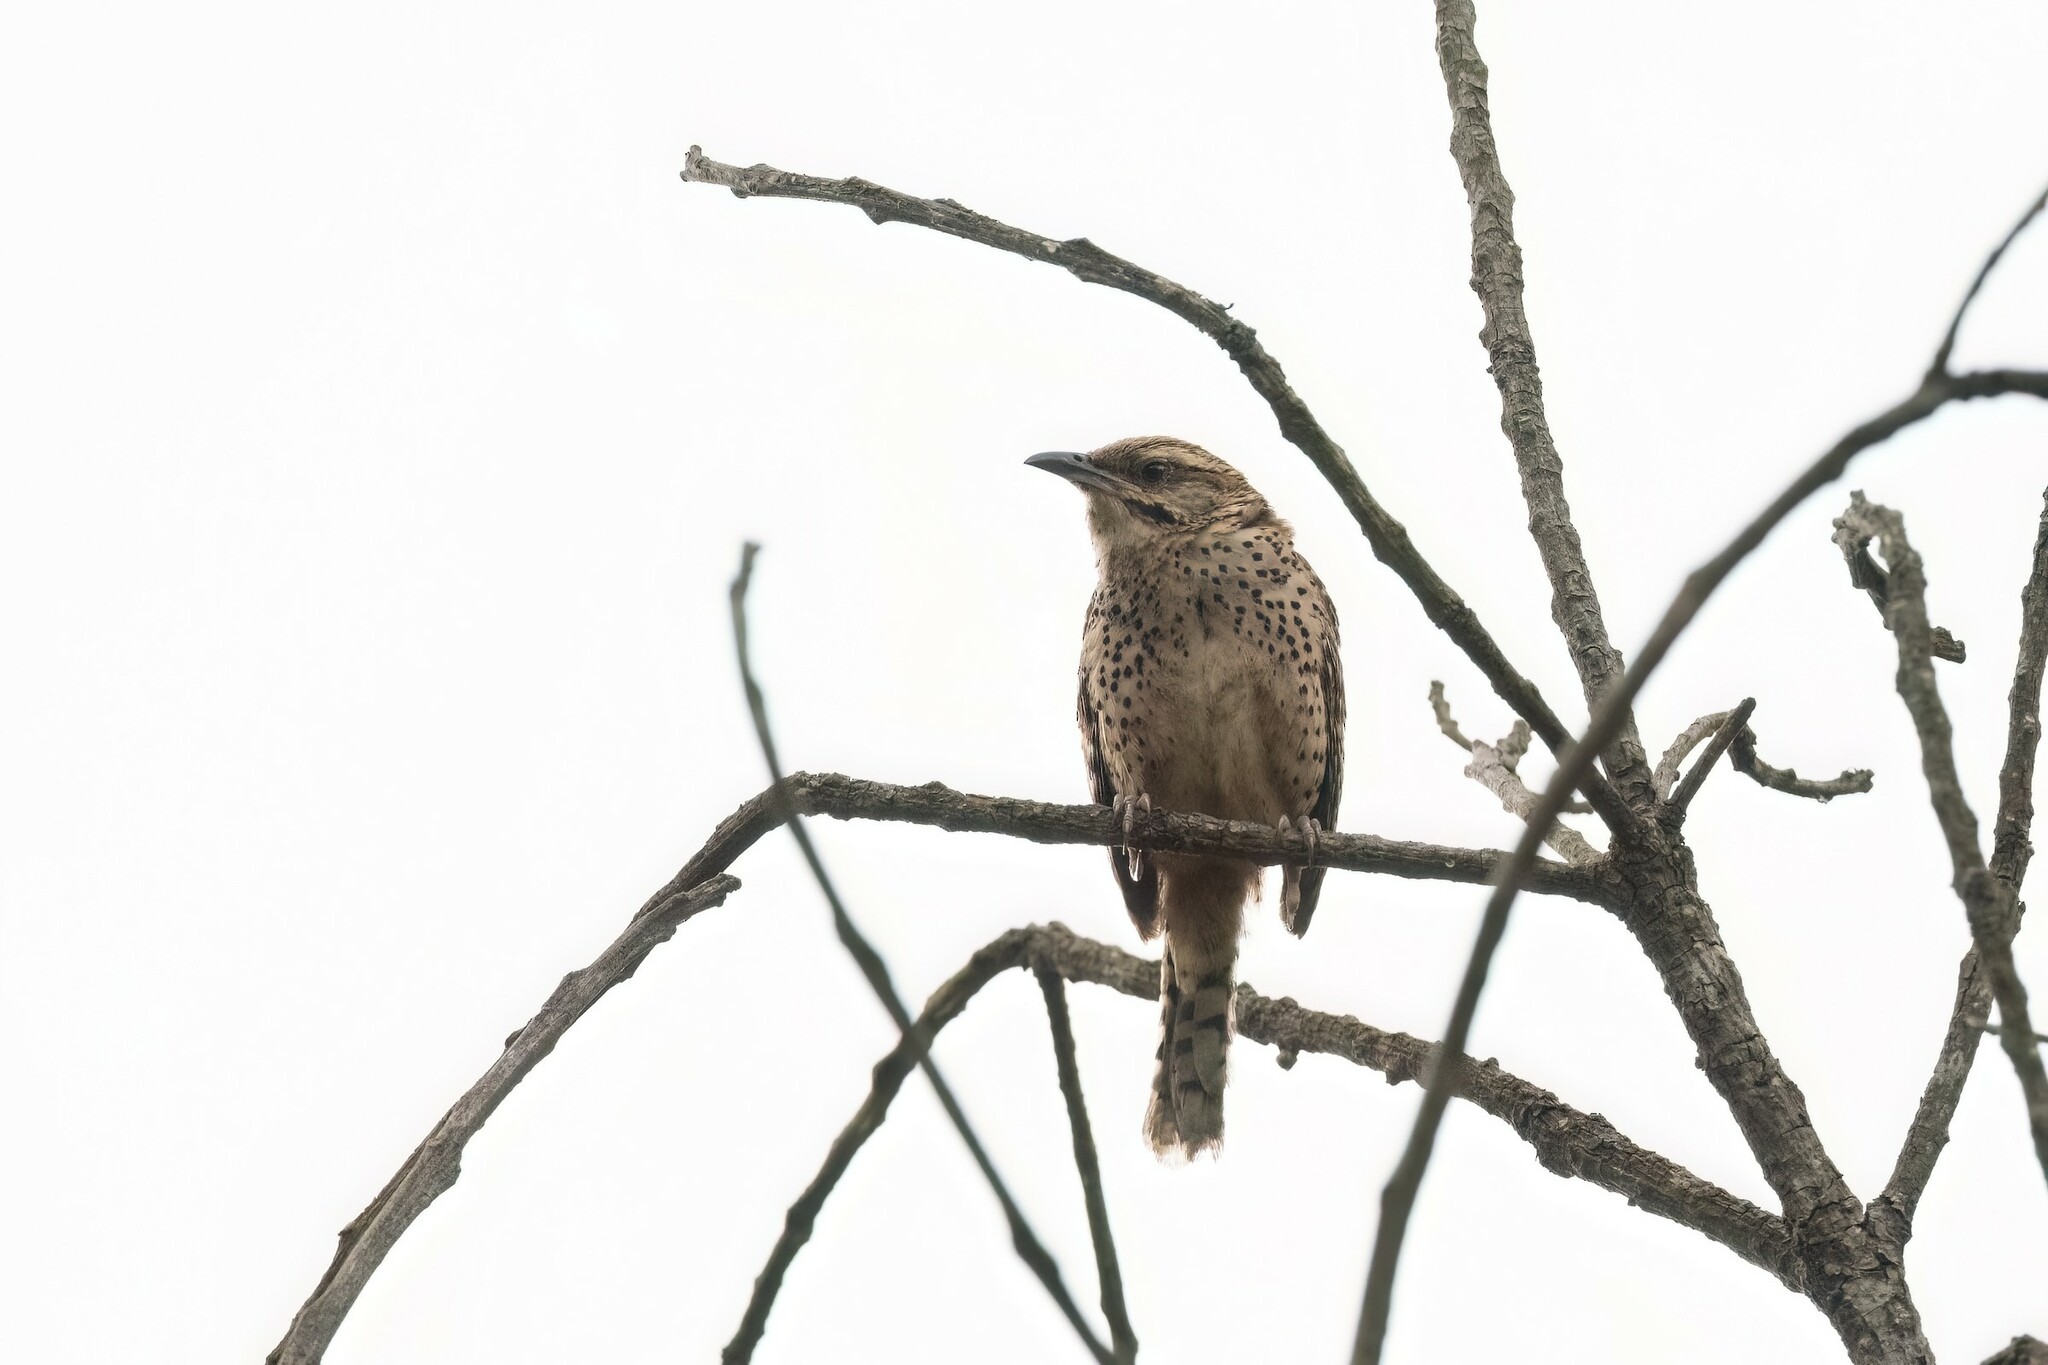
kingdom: Animalia
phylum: Chordata
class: Aves
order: Passeriformes
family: Troglodytidae
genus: Campylorhynchus
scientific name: Campylorhynchus gularis
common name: Spotted wren
